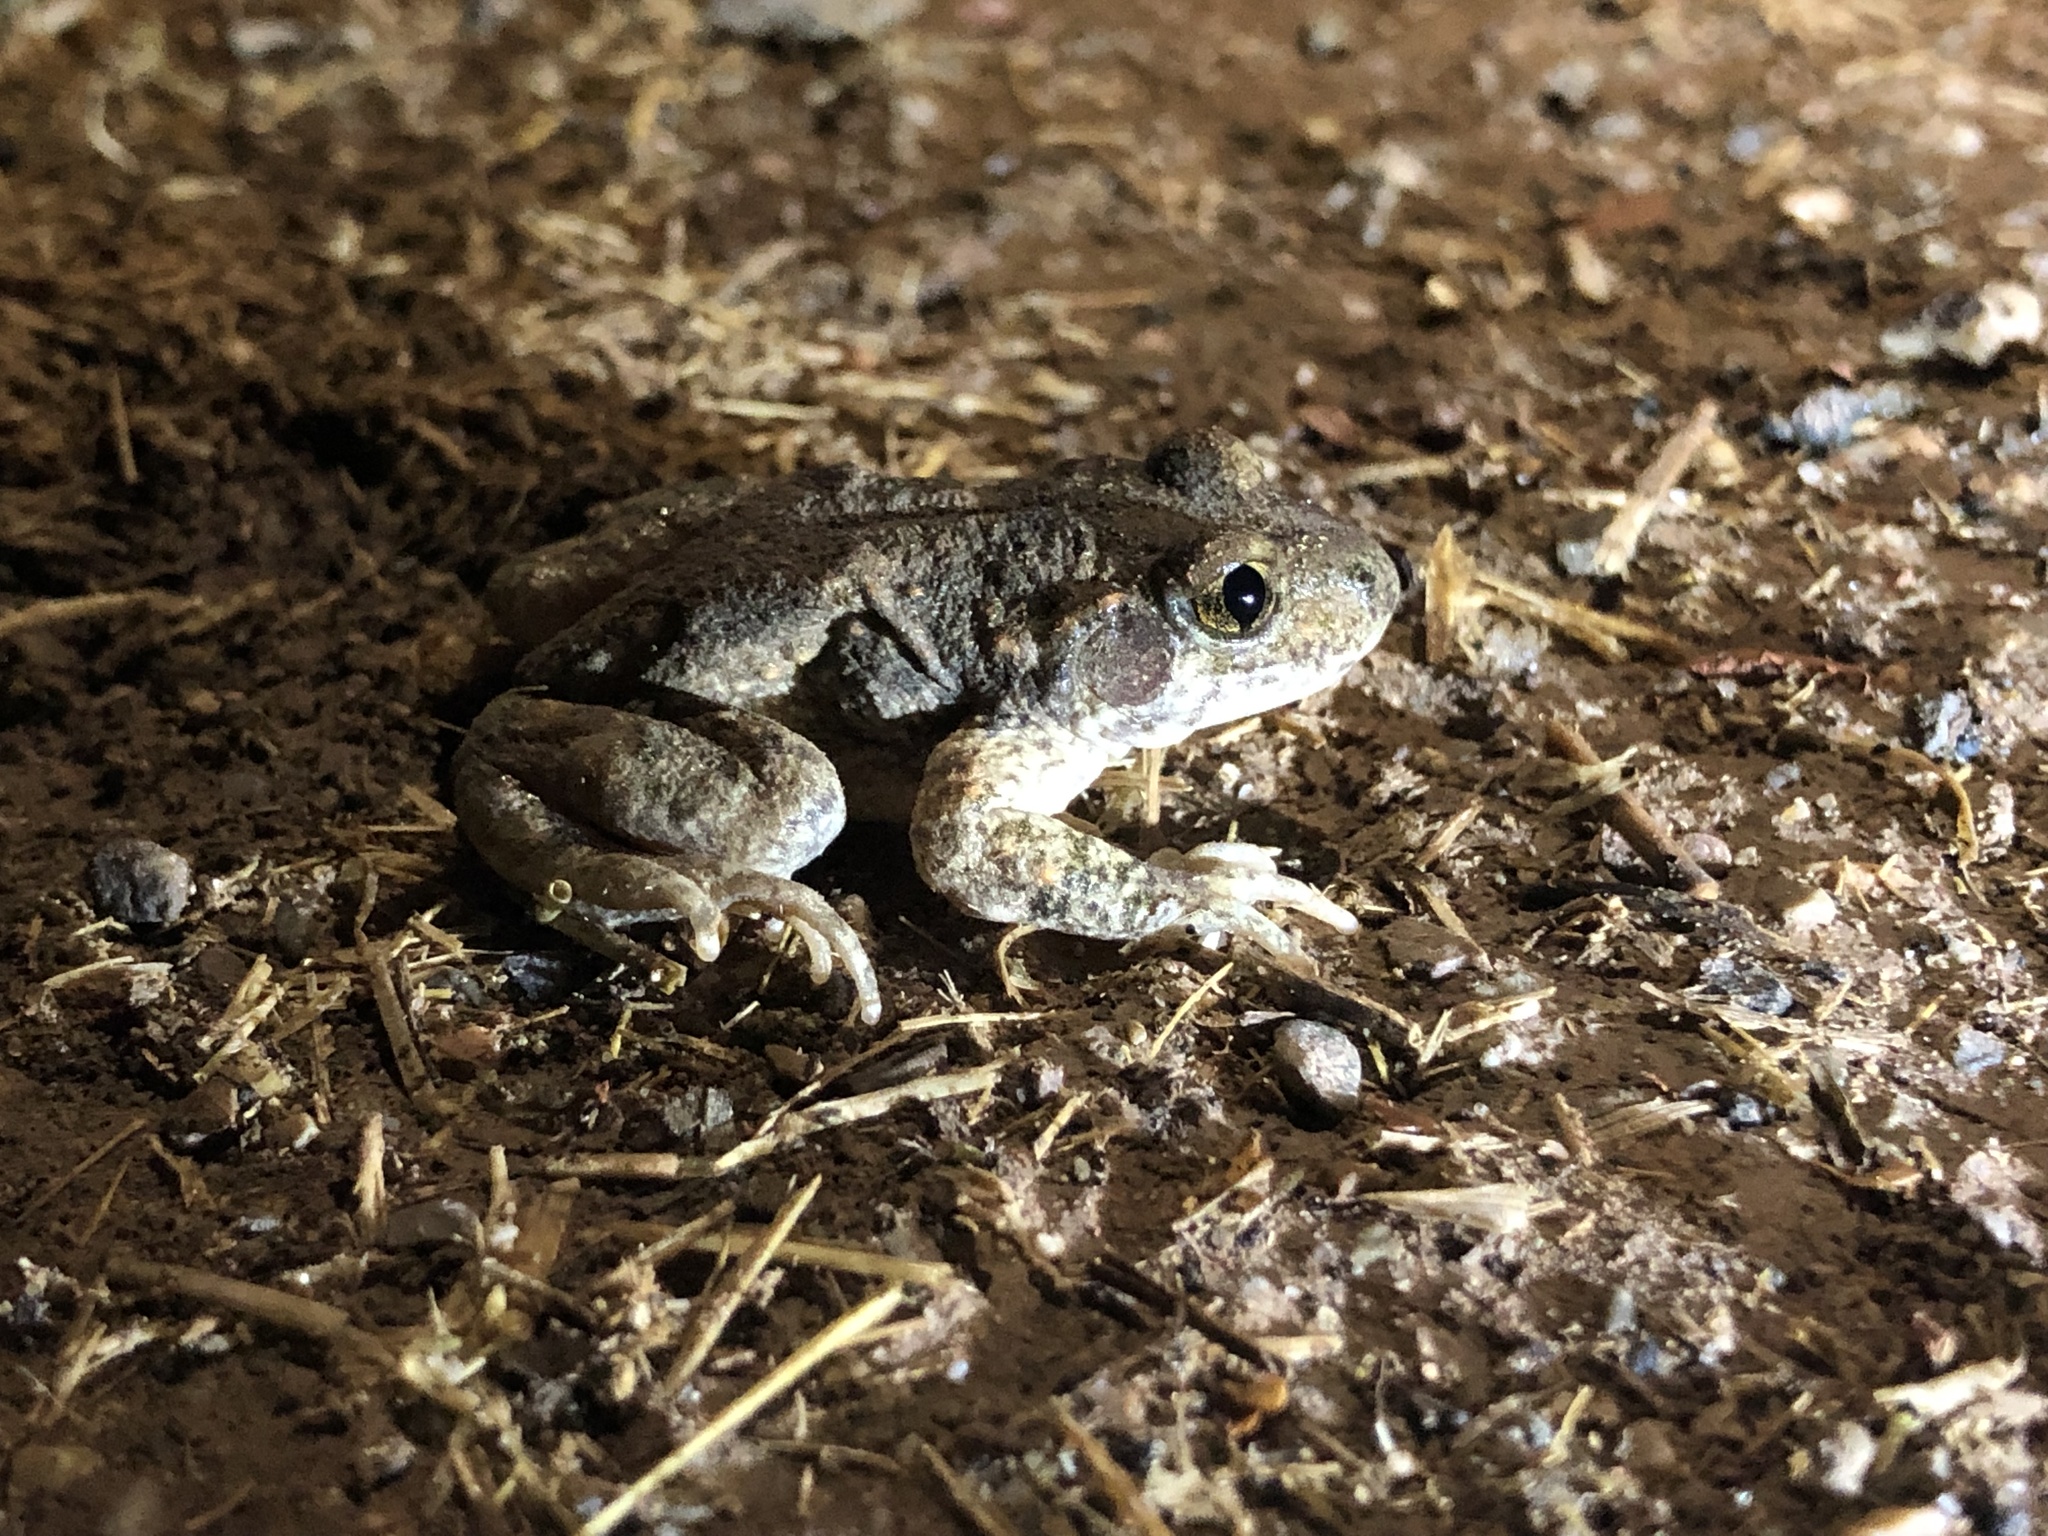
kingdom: Animalia
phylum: Chordata
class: Amphibia
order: Anura
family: Alytidae
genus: Alytes
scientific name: Alytes obstetricans
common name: Midwife toad
